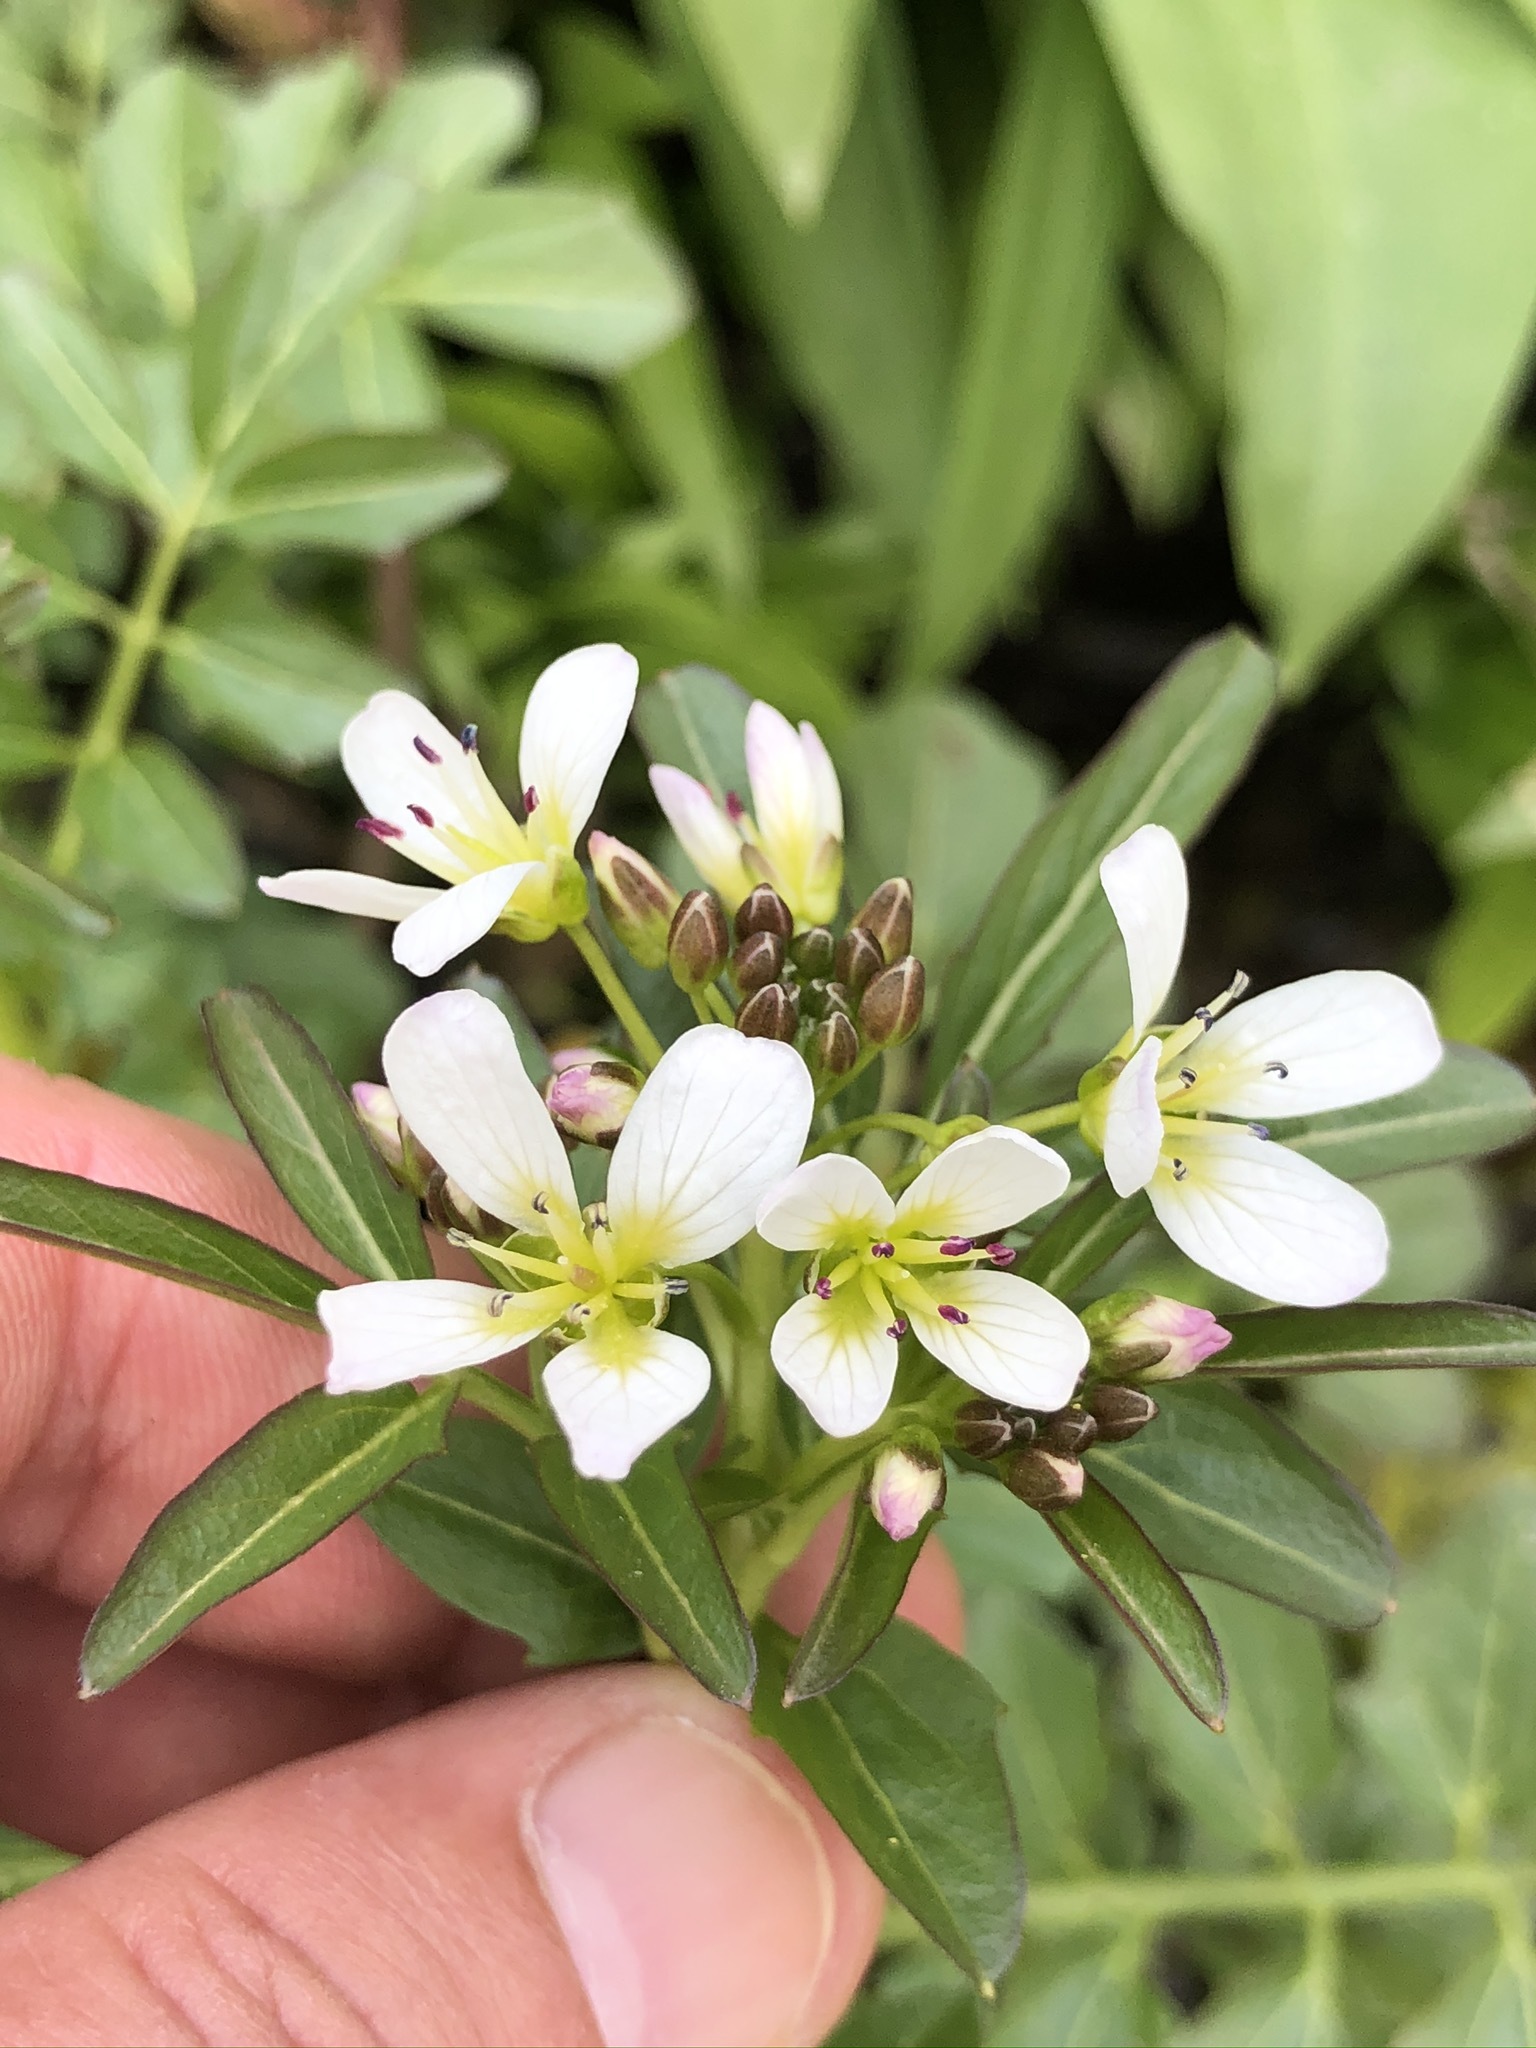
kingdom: Plantae
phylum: Tracheophyta
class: Magnoliopsida
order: Brassicales
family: Brassicaceae
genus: Cardamine
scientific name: Cardamine amara
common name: Large bitter-cress
